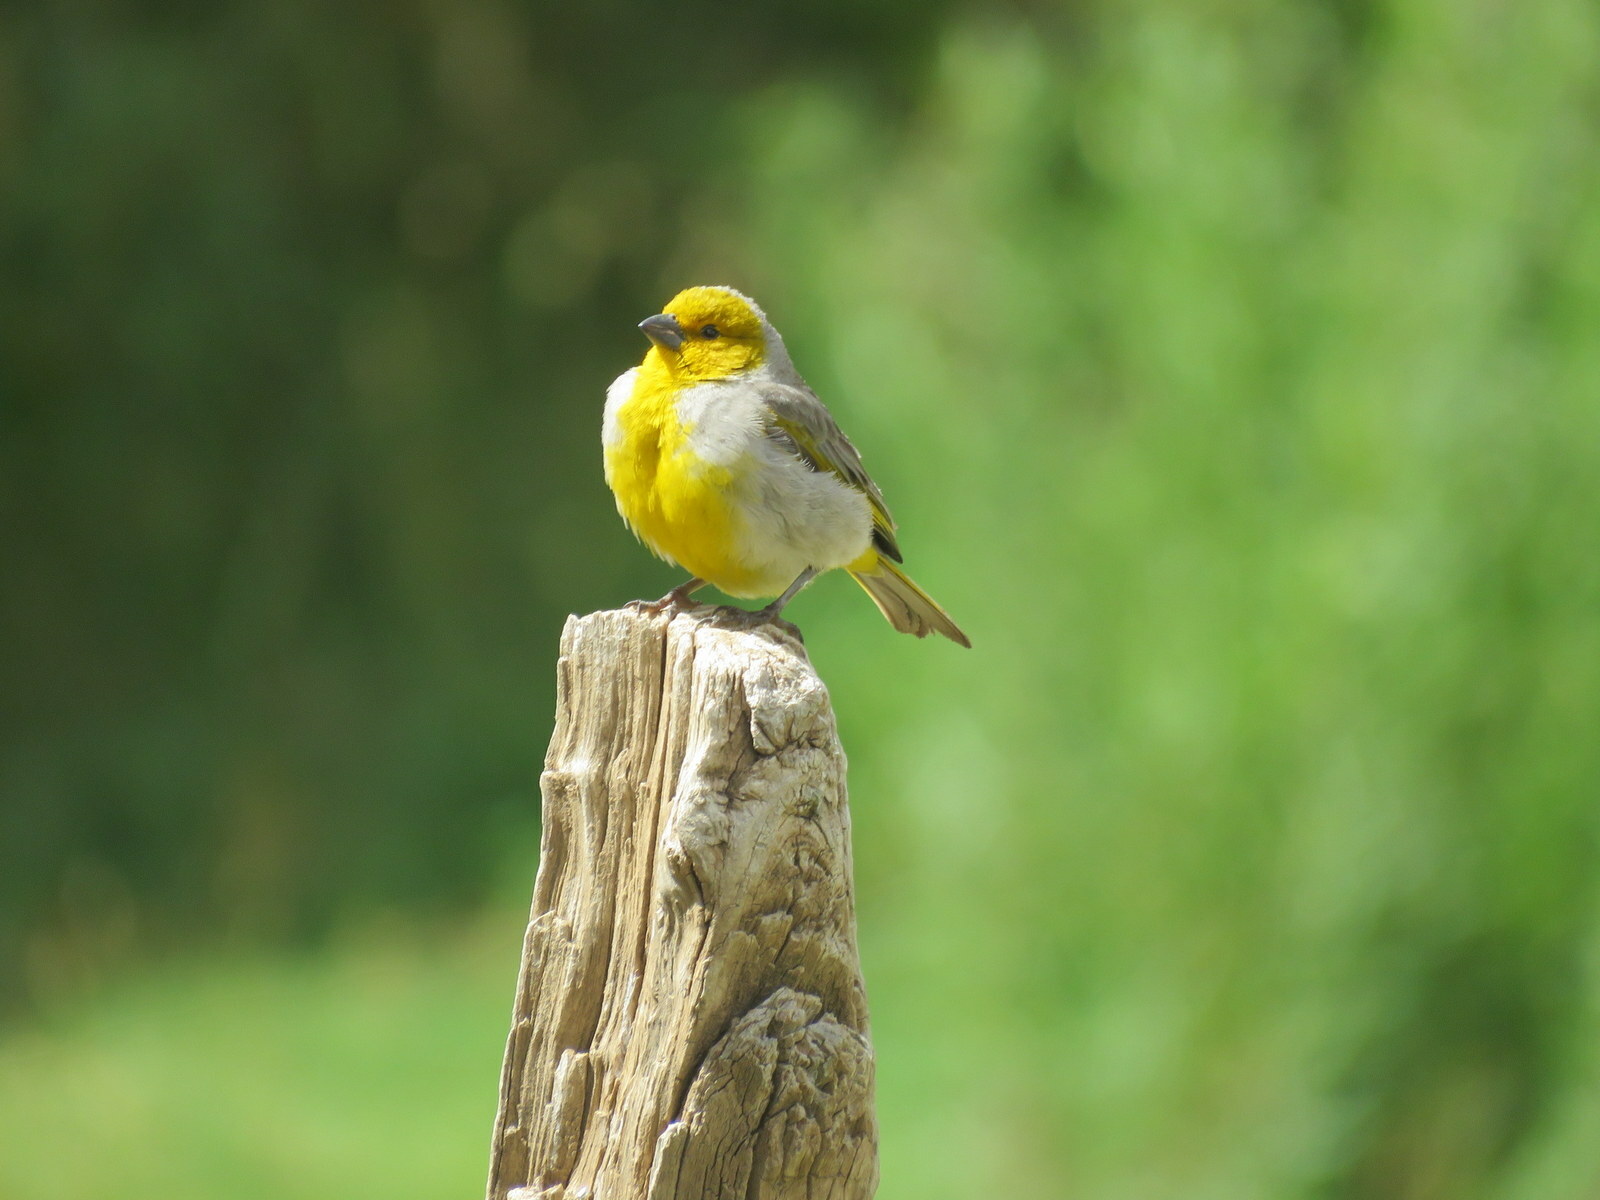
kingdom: Animalia
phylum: Chordata
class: Aves
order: Passeriformes
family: Thraupidae
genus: Sicalis
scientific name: Sicalis luteocephala
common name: Citron-headed yellow finch
